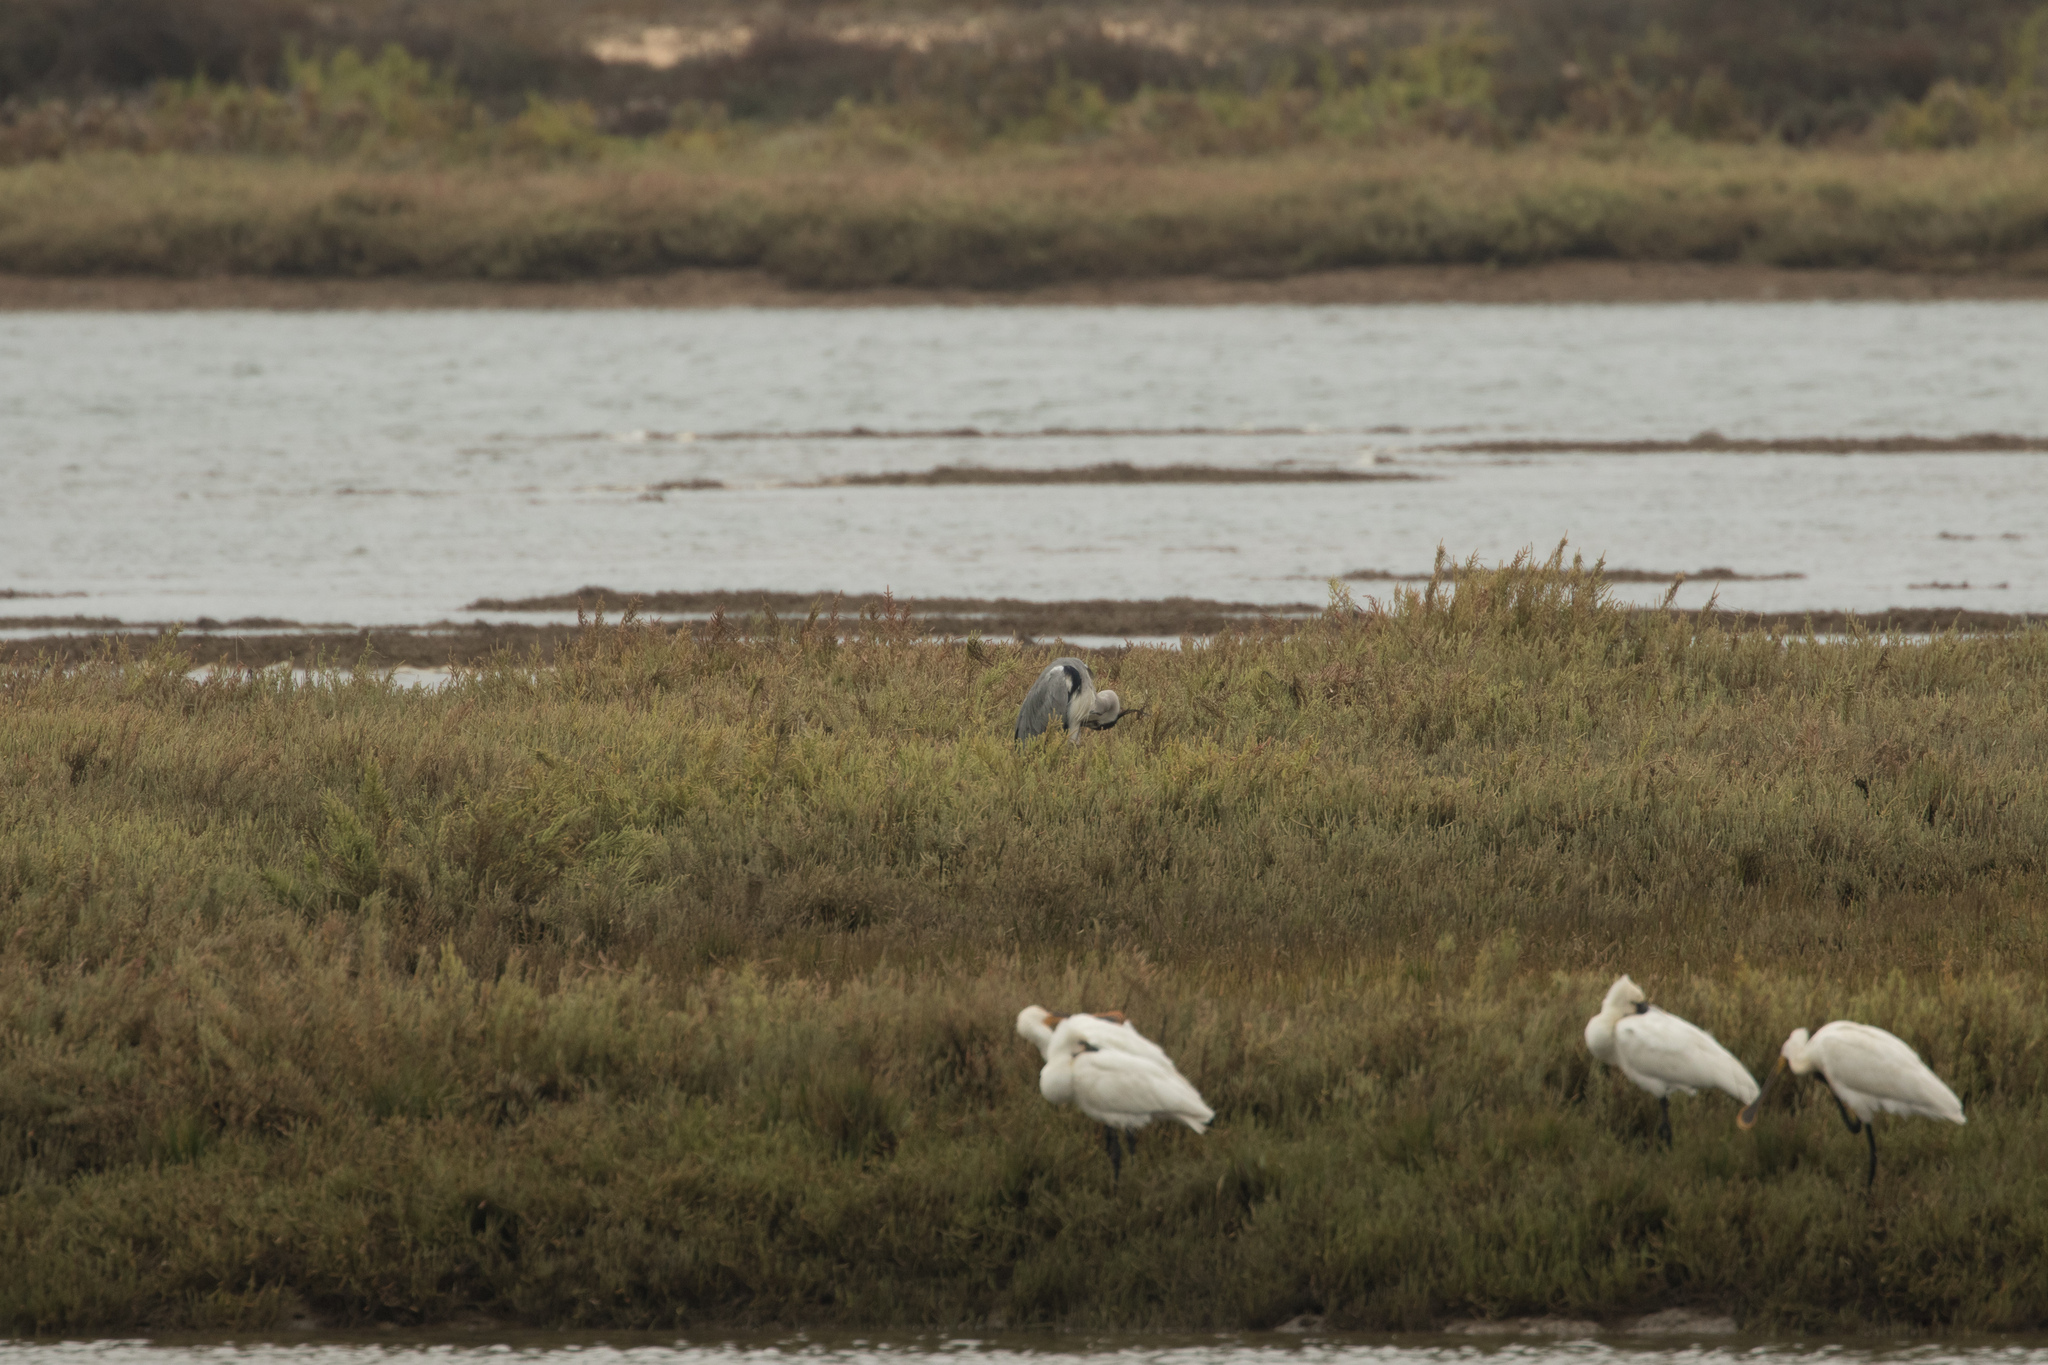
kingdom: Animalia
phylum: Chordata
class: Aves
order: Pelecaniformes
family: Ardeidae
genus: Ardea
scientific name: Ardea cinerea
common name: Grey heron
